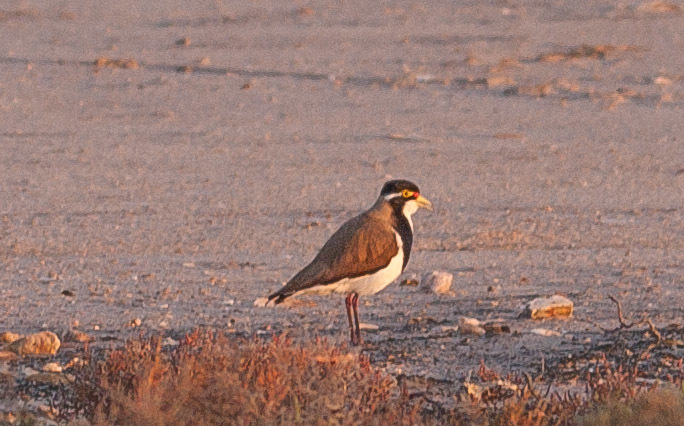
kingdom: Animalia
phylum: Chordata
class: Aves
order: Charadriiformes
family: Charadriidae
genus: Vanellus
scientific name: Vanellus tricolor
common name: Banded lapwing
